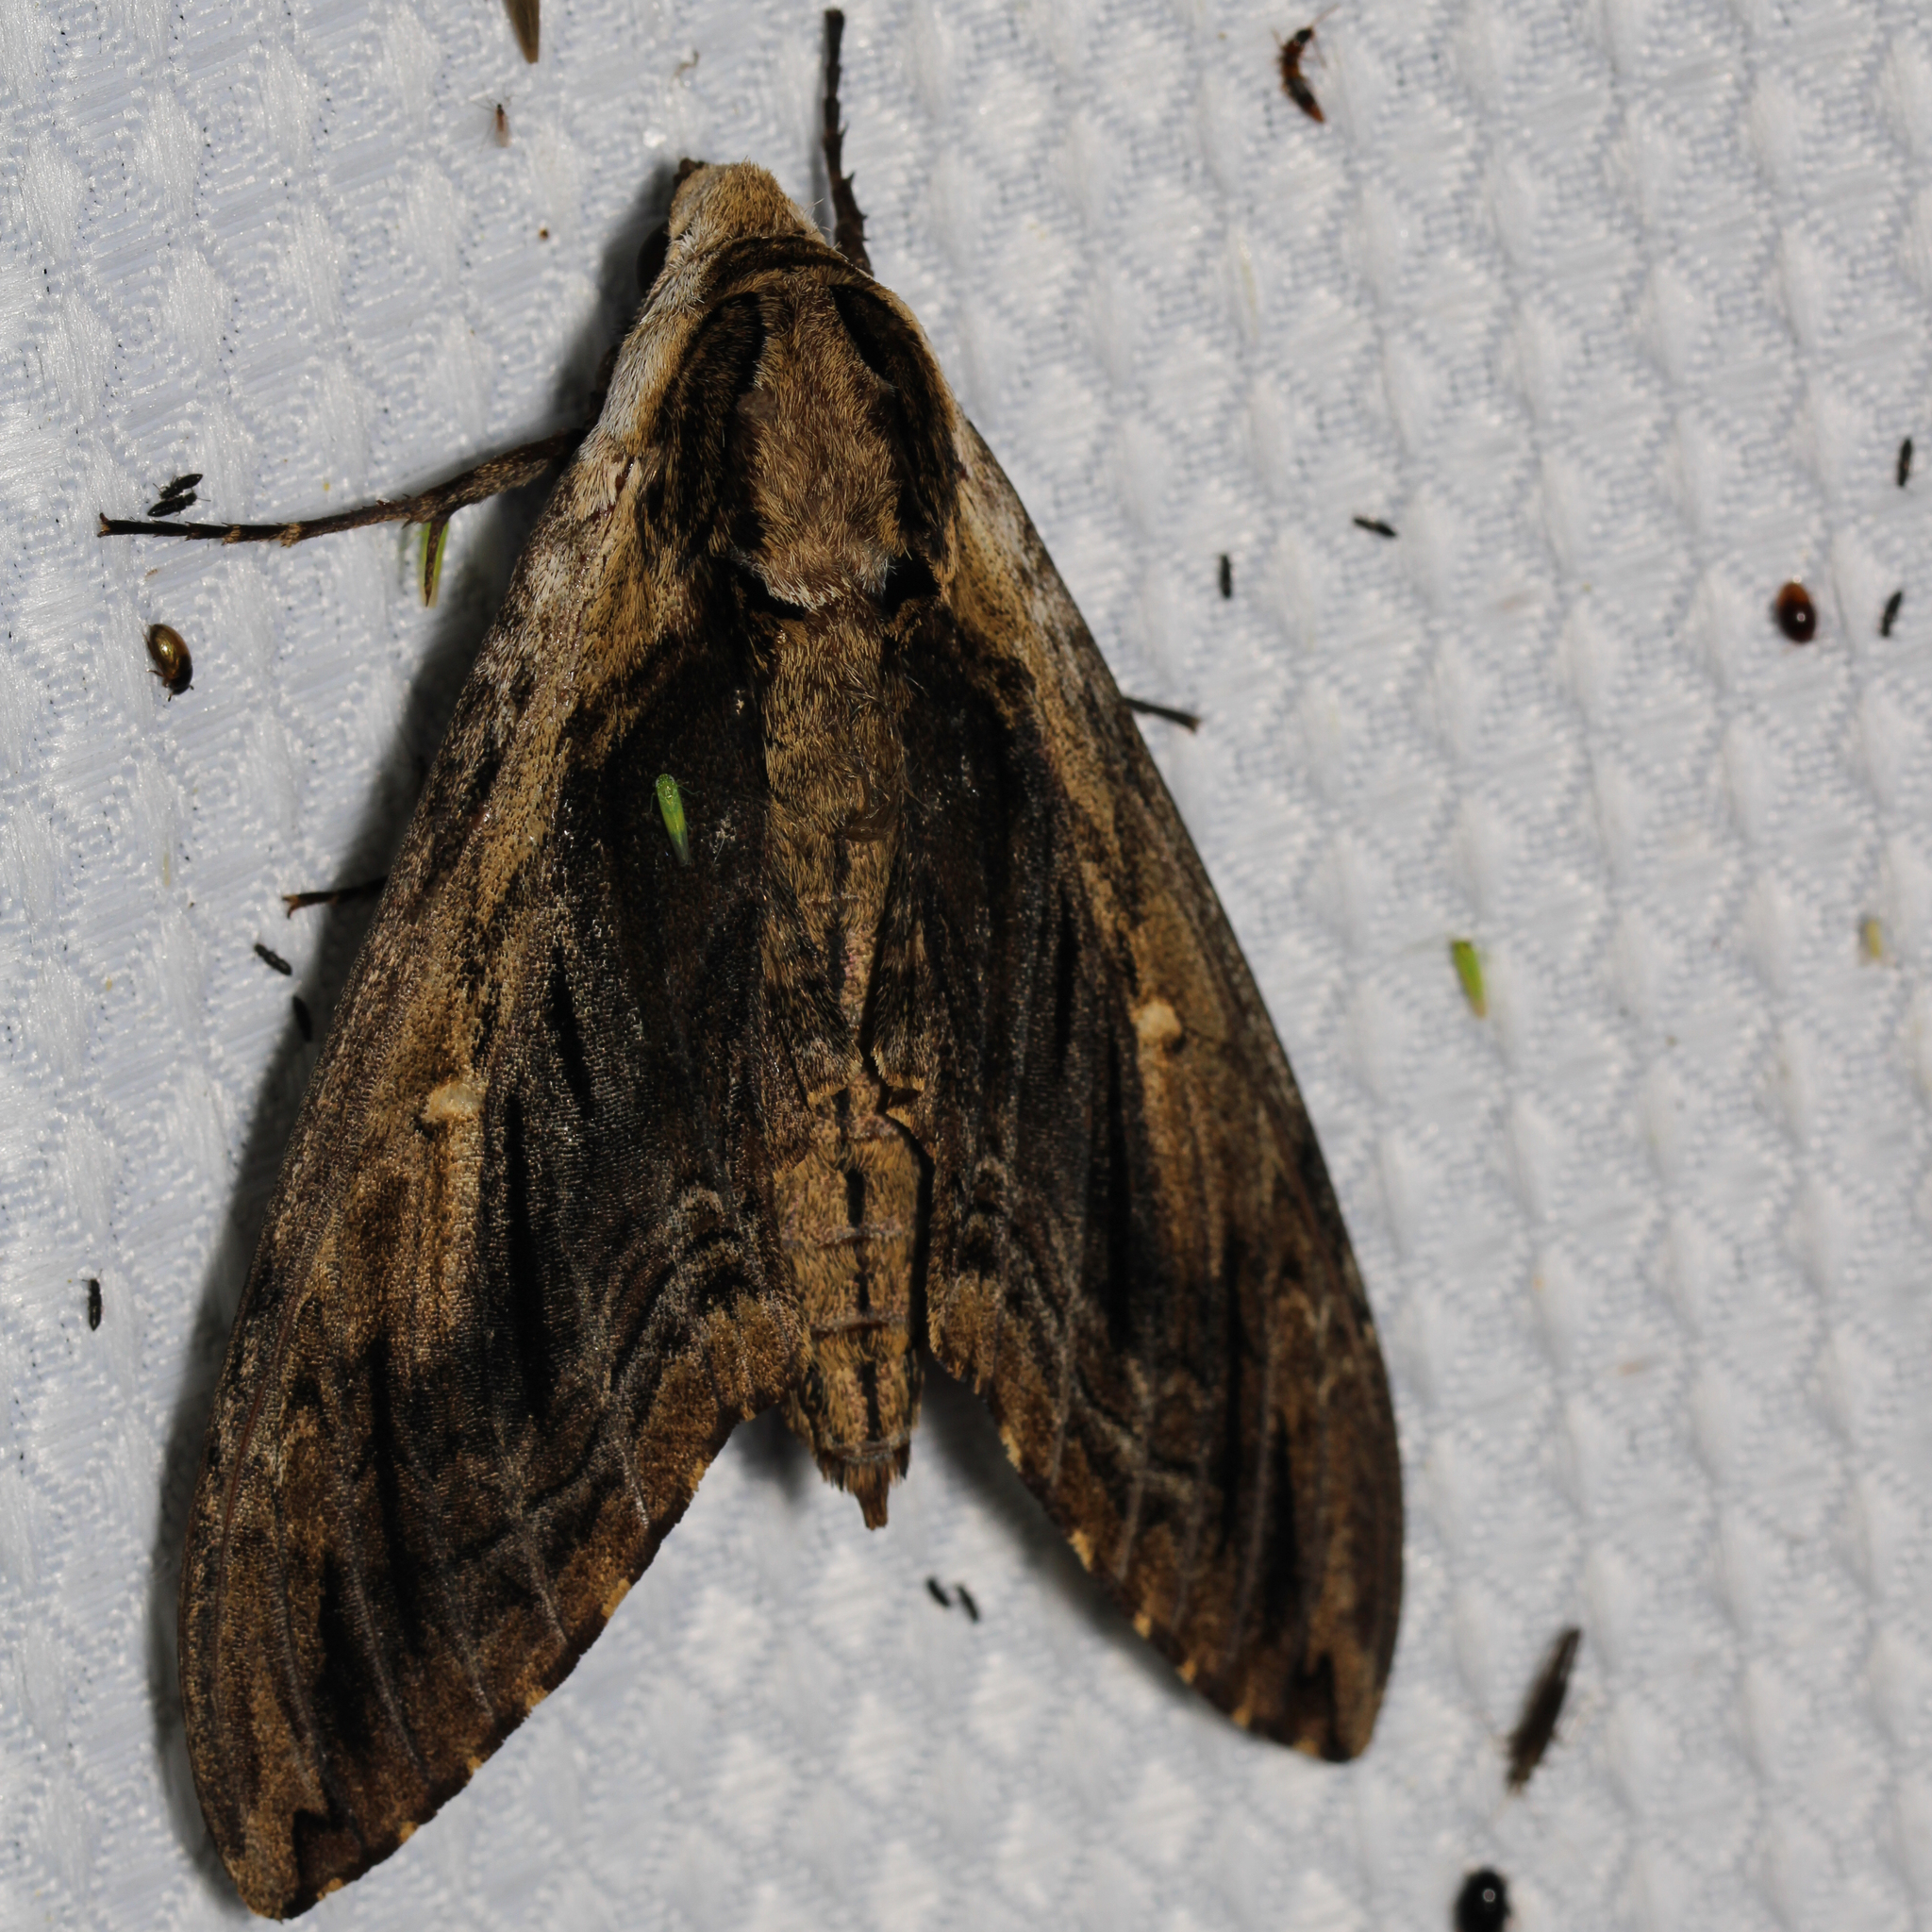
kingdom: Animalia
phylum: Arthropoda
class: Insecta
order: Lepidoptera
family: Sphingidae
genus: Ceratomia
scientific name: Ceratomia amyntor
